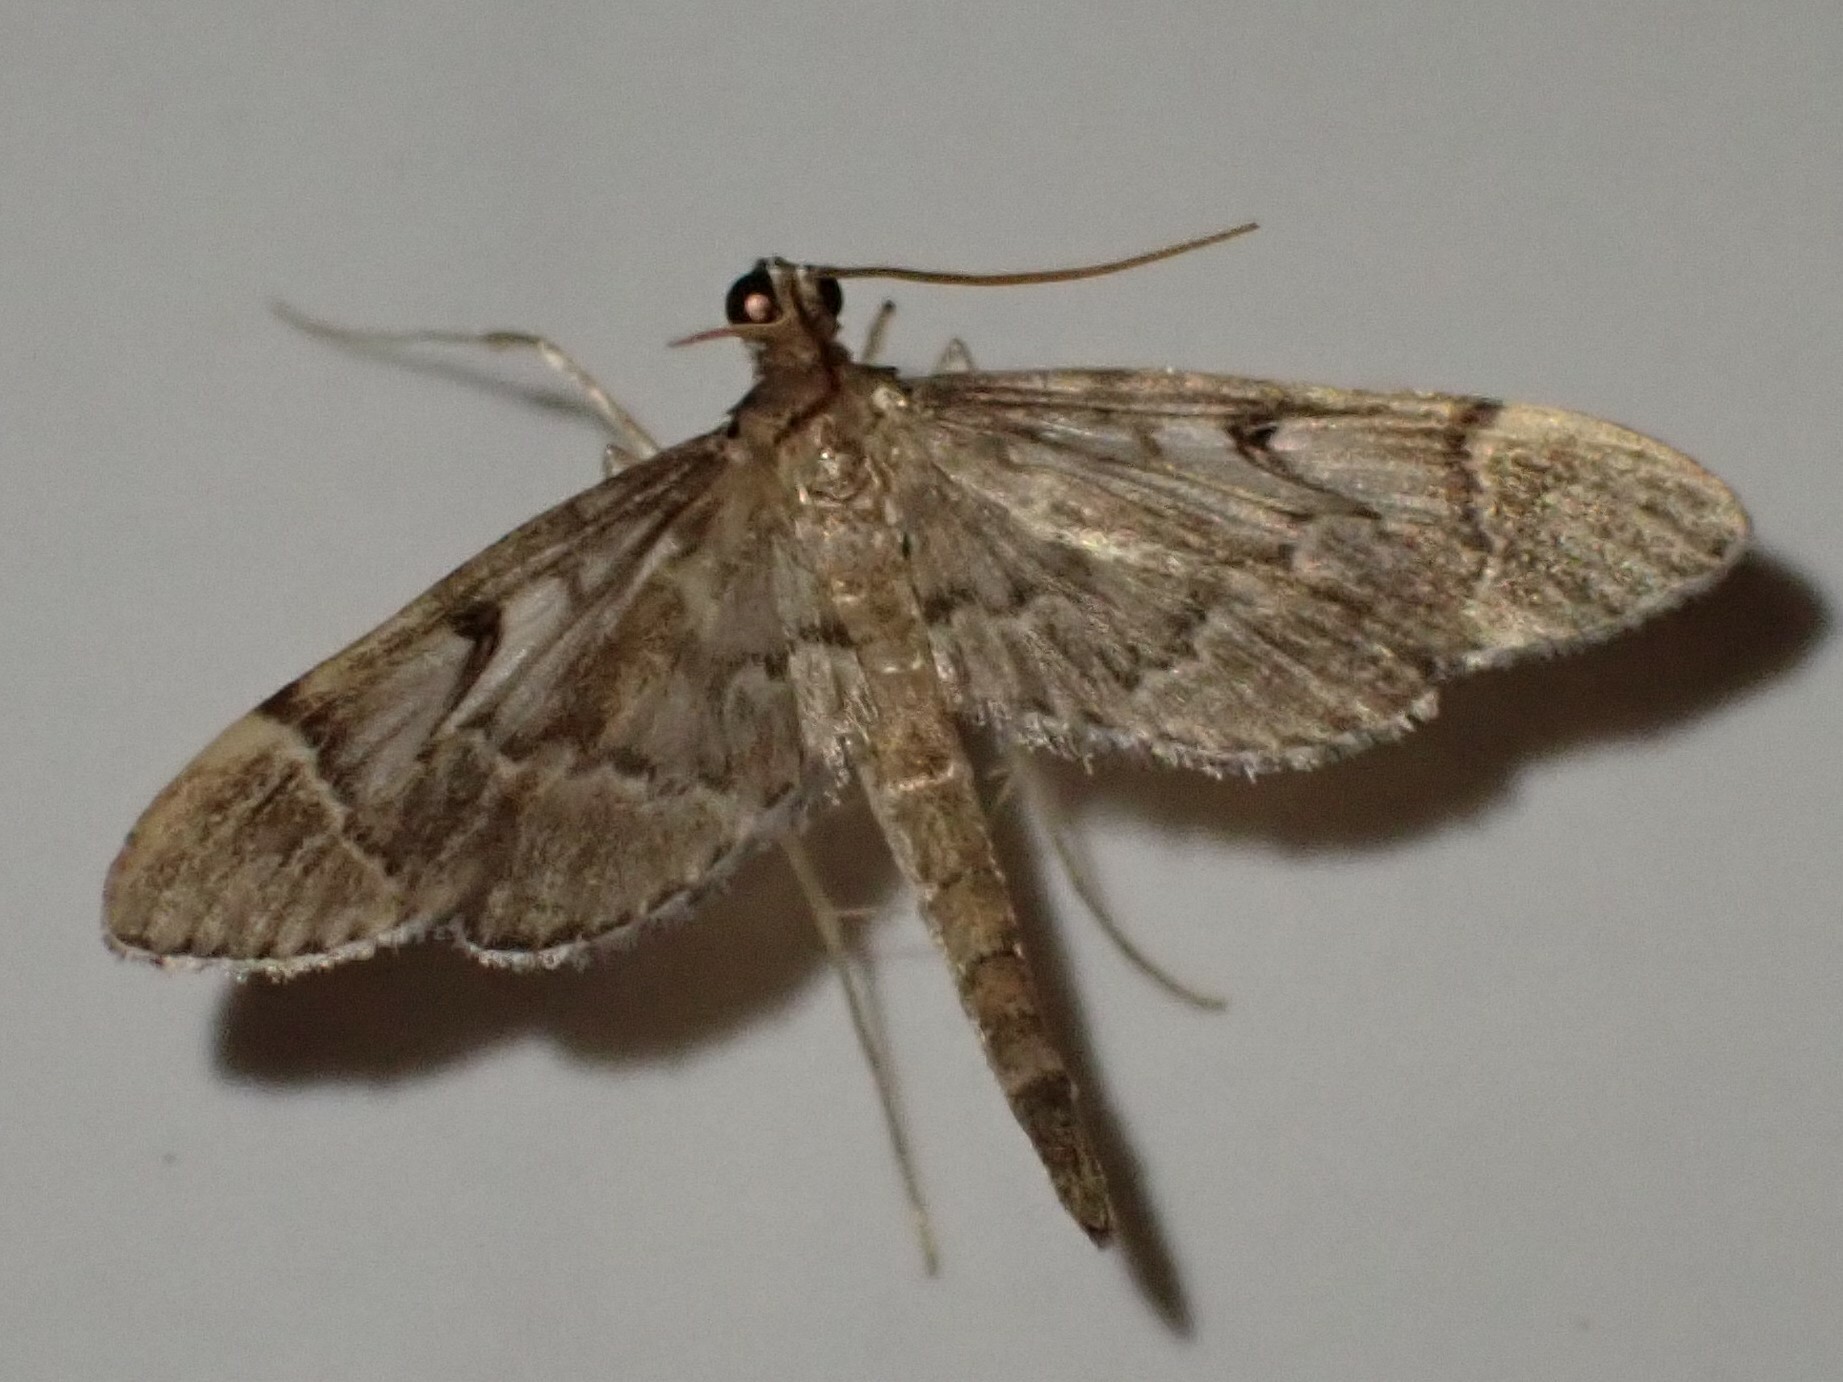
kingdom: Animalia
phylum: Arthropoda
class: Insecta
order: Lepidoptera
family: Crambidae
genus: Duponchelia
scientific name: Duponchelia lanceolalis
